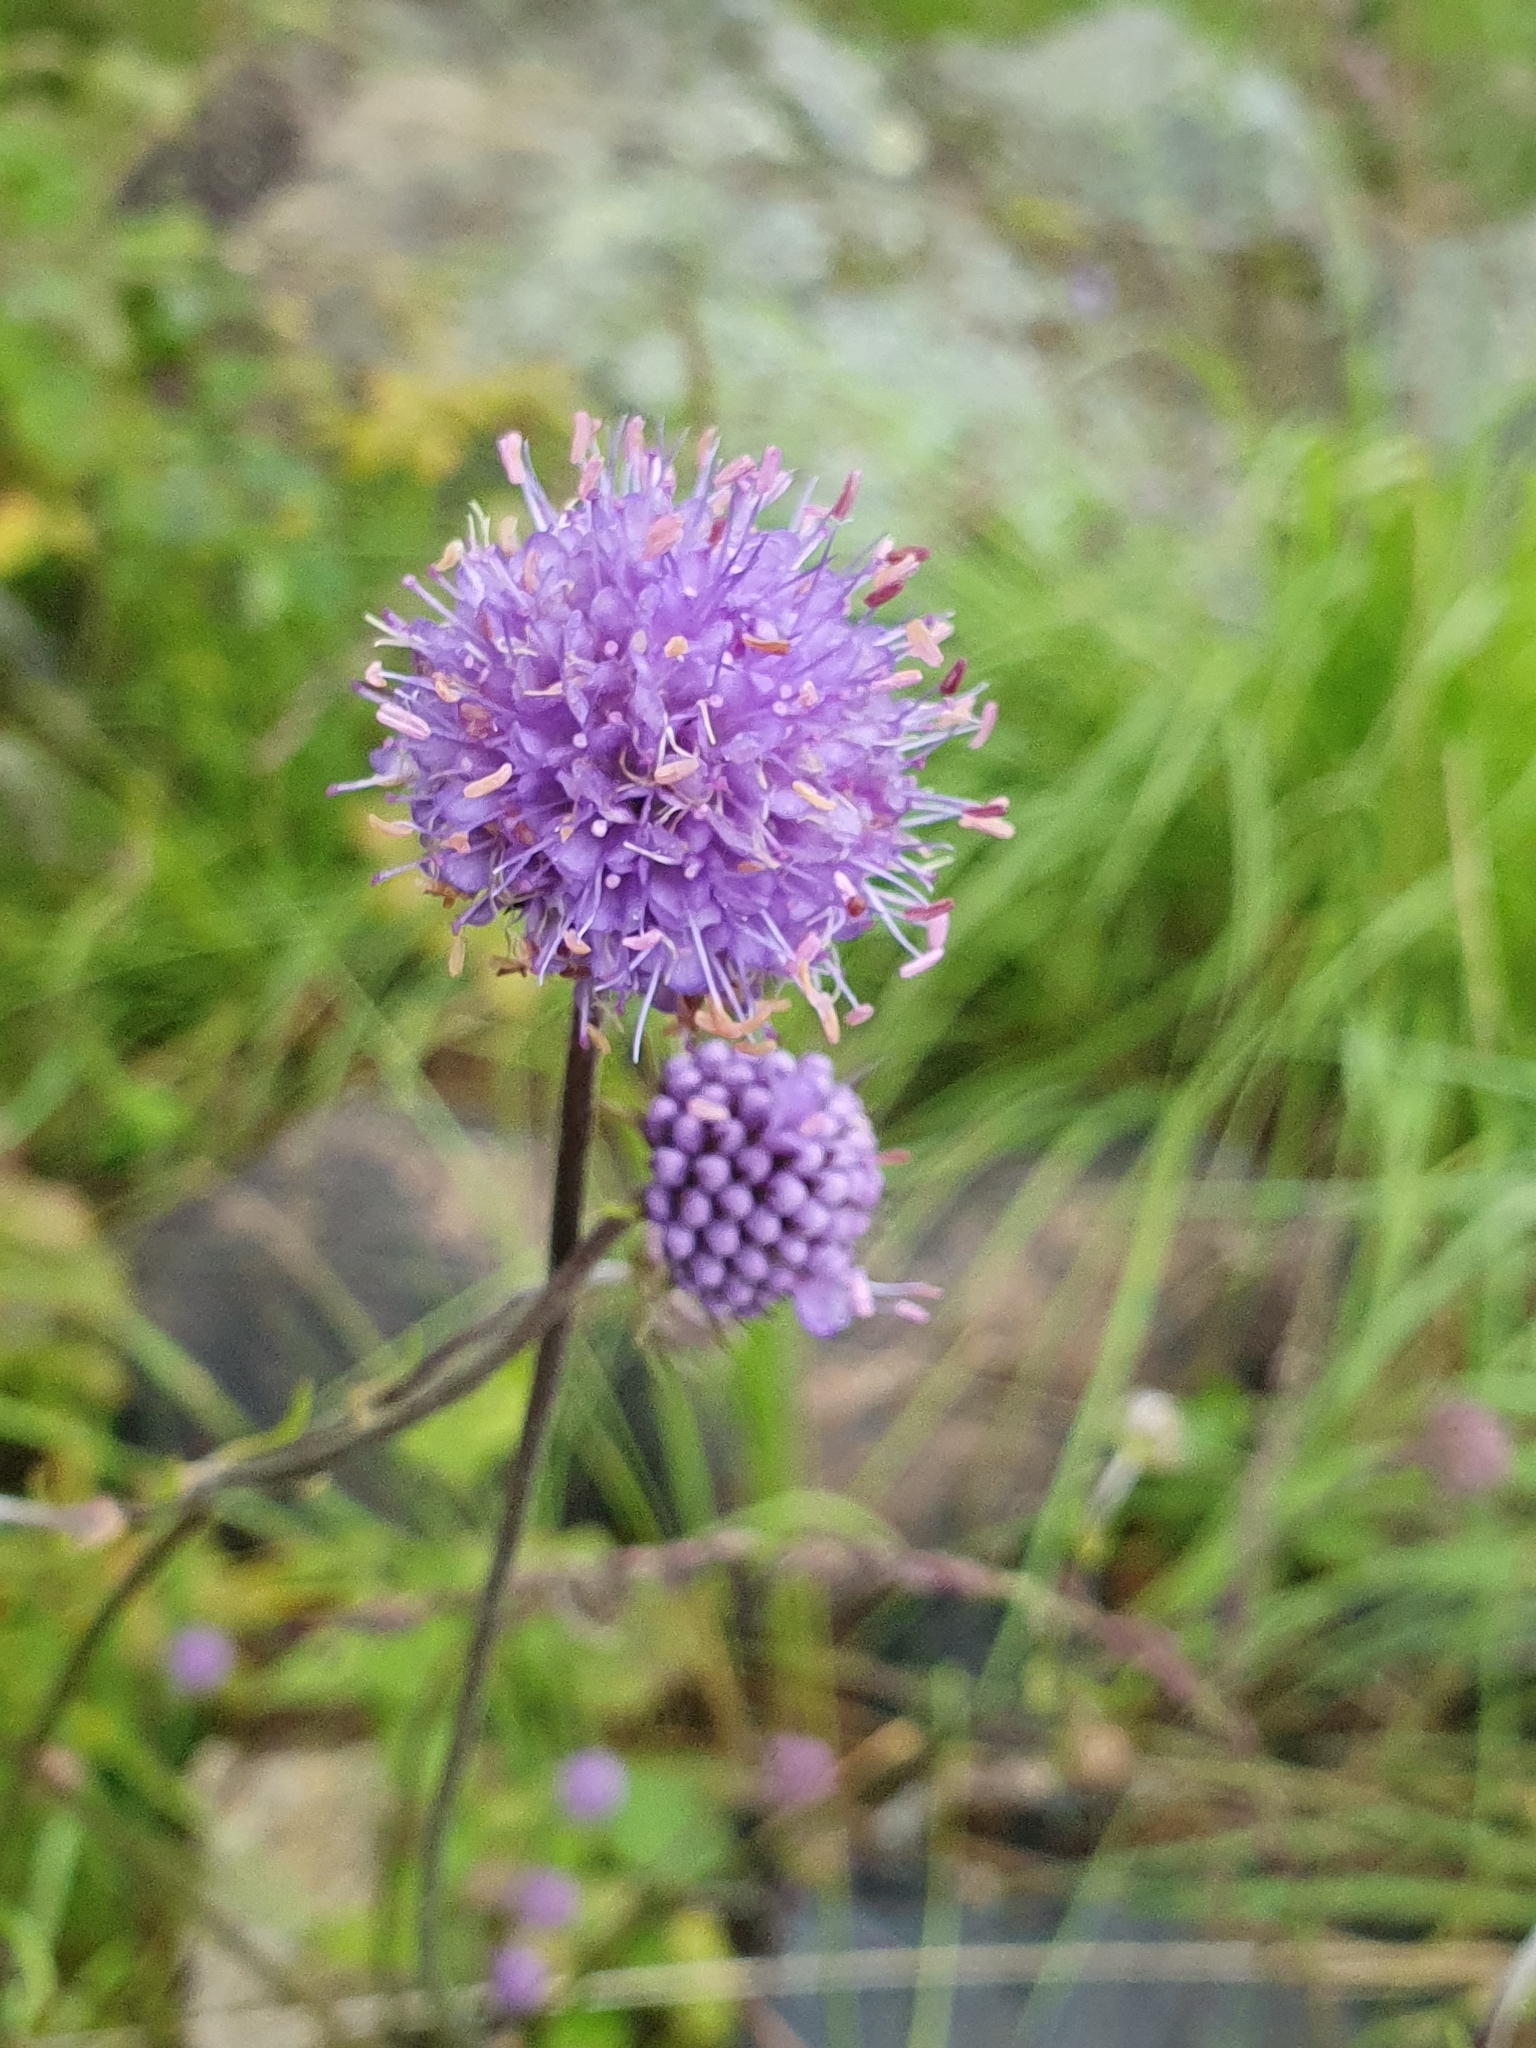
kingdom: Plantae
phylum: Tracheophyta
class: Magnoliopsida
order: Dipsacales
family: Caprifoliaceae
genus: Succisa
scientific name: Succisa pratensis
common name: Devil's-bit
